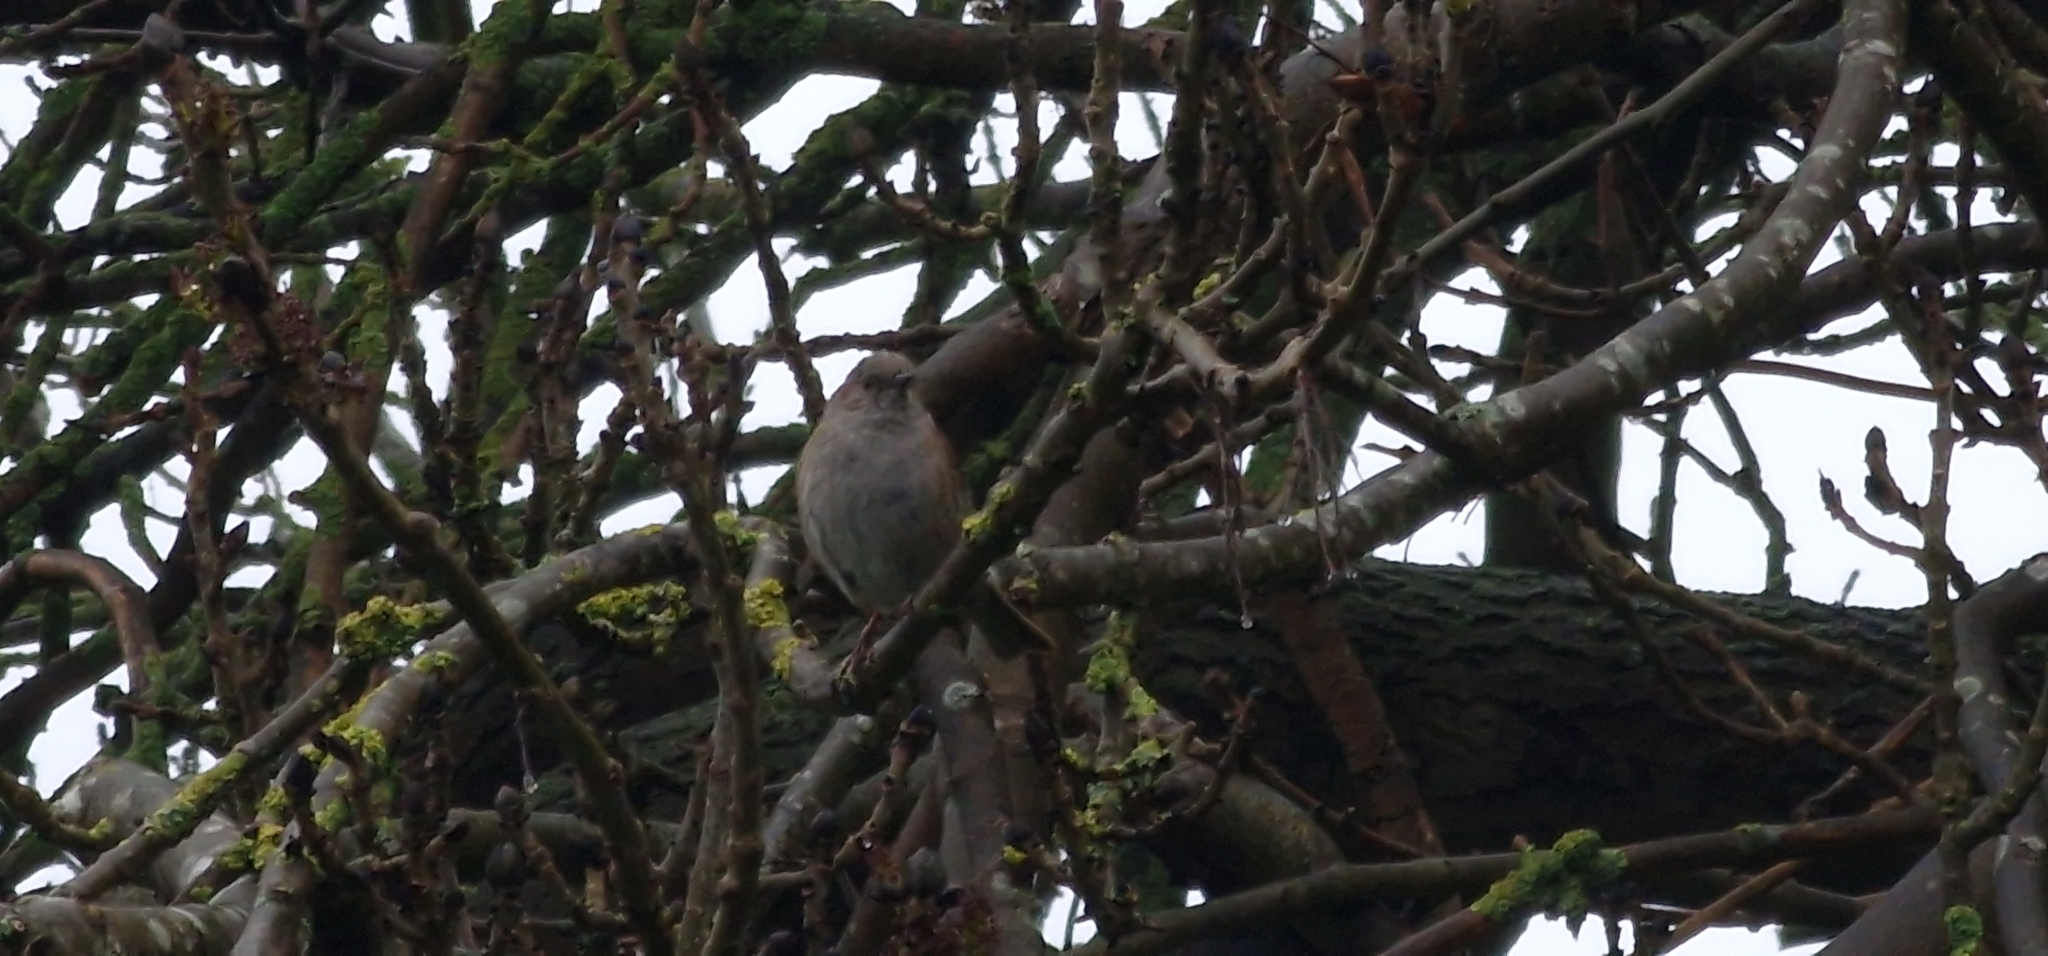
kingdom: Animalia
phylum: Chordata
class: Aves
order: Passeriformes
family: Prunellidae
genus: Prunella
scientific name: Prunella modularis
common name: Dunnock
